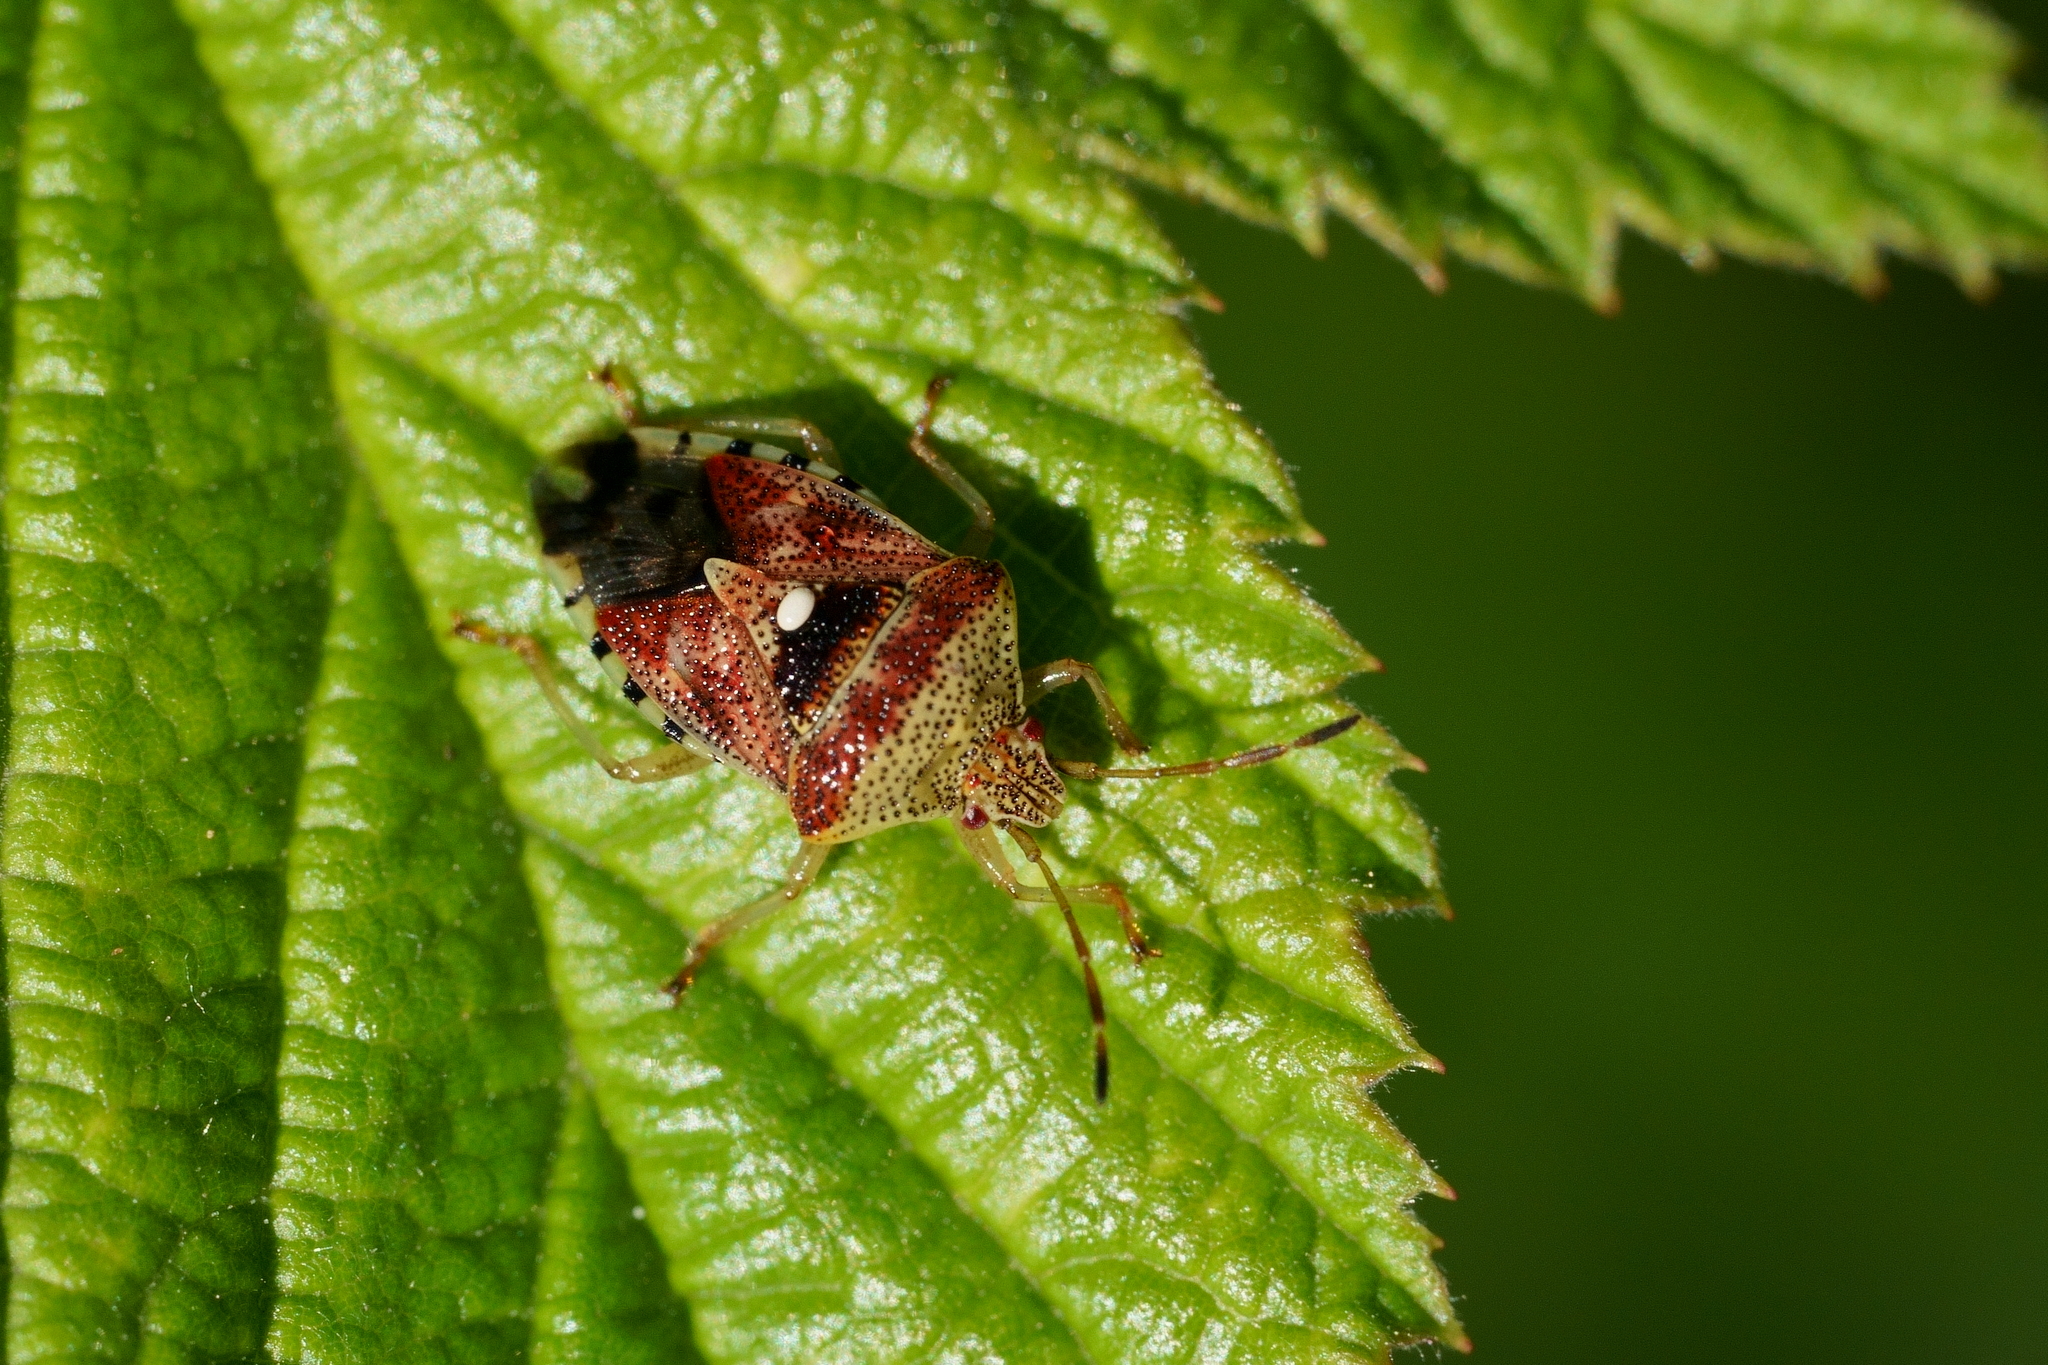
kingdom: Animalia
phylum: Arthropoda
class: Insecta
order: Hemiptera
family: Acanthosomatidae
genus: Elasmucha
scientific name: Elasmucha grisea
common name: Parent bug
